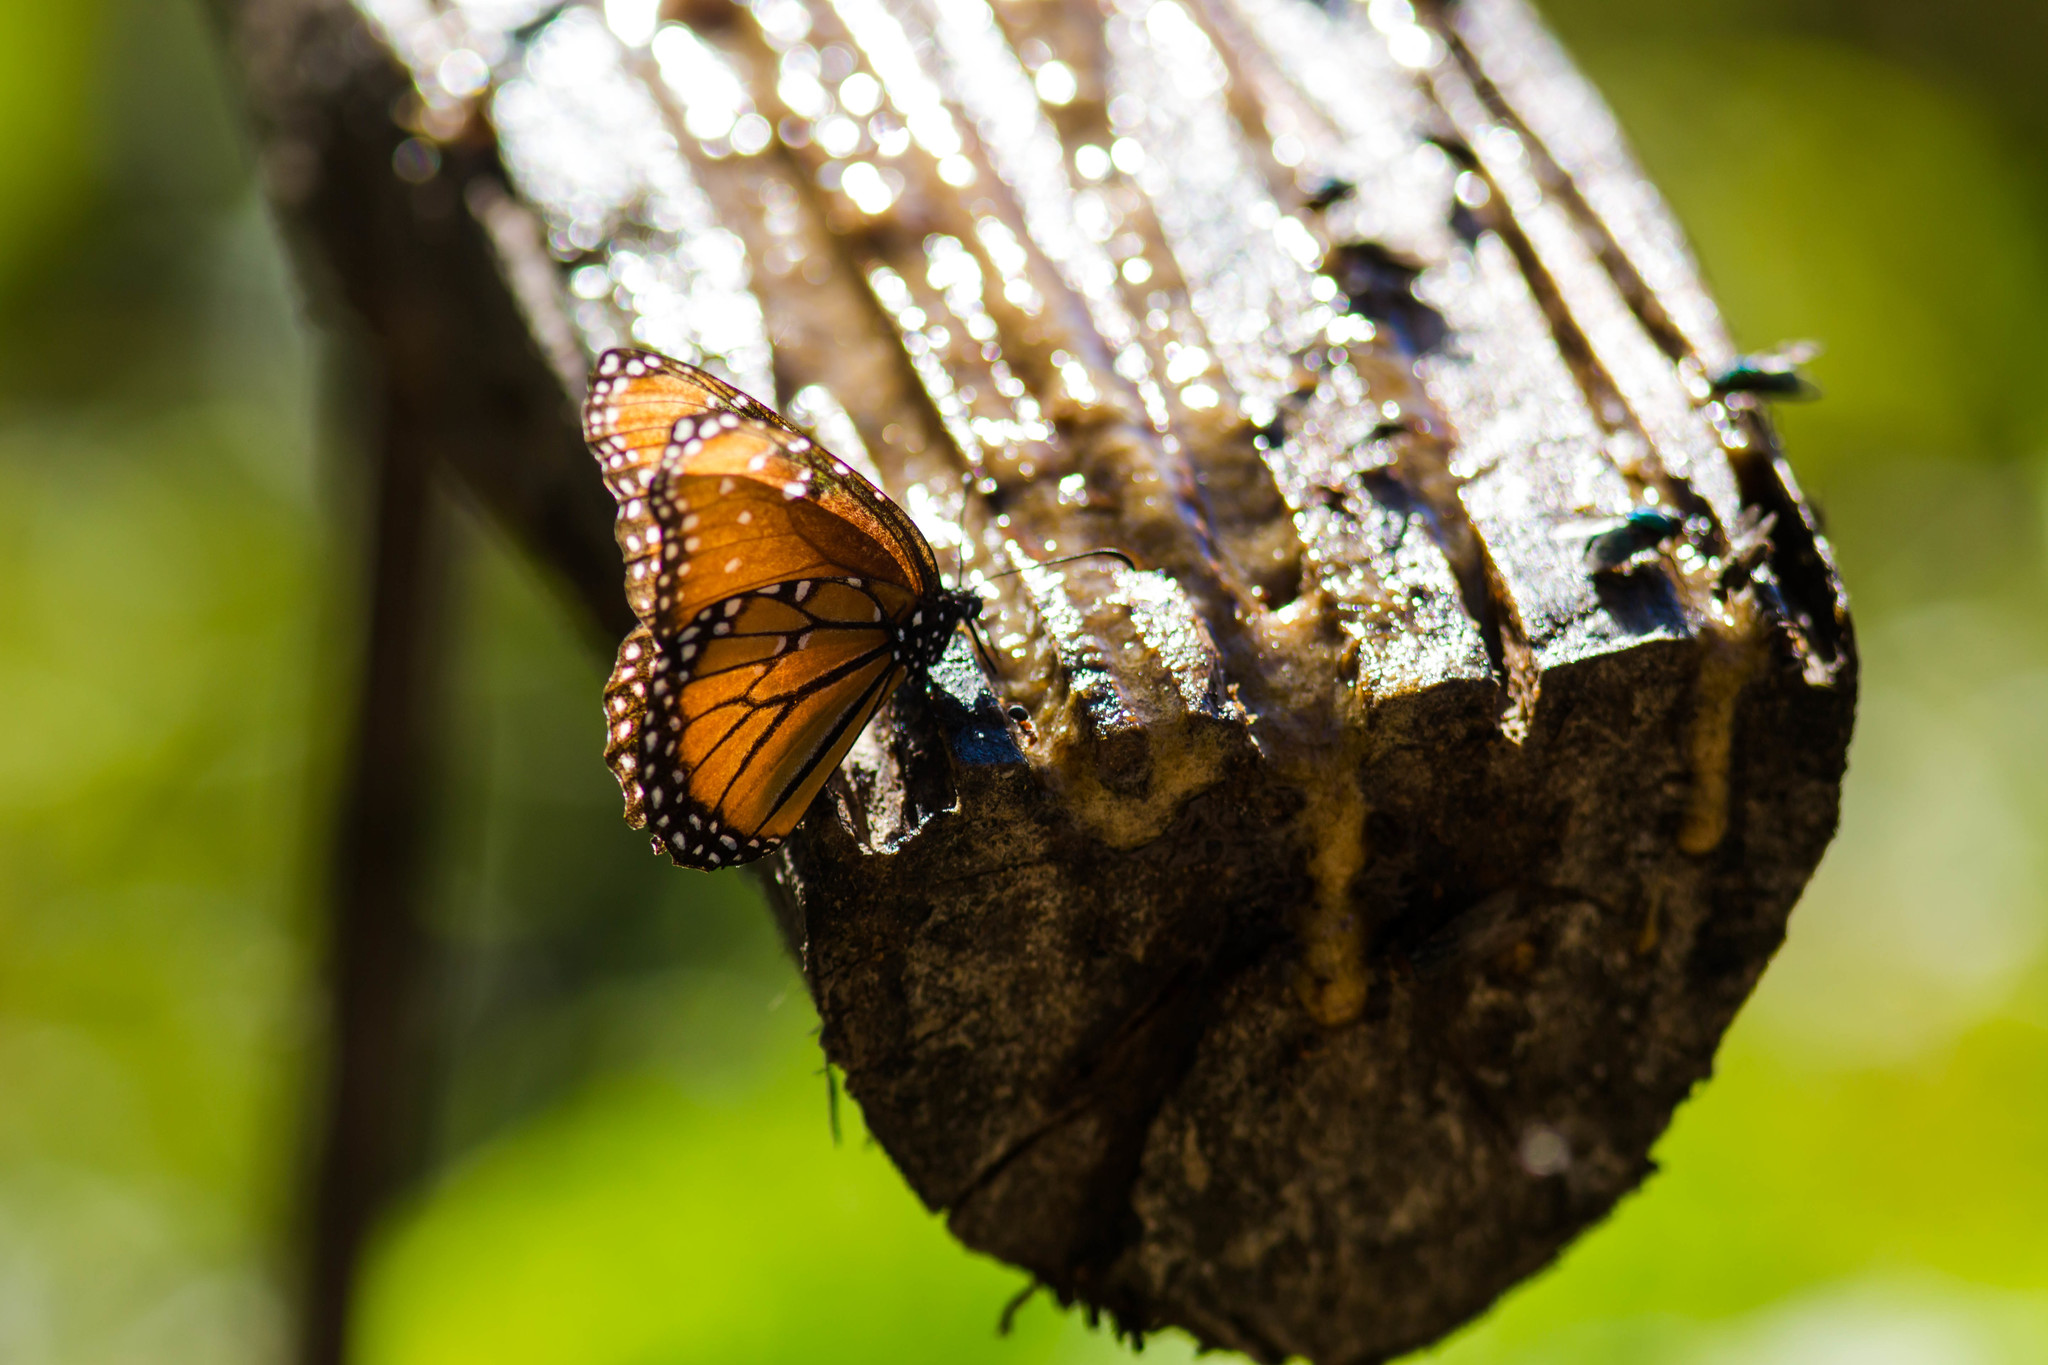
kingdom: Animalia
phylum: Arthropoda
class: Insecta
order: Lepidoptera
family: Nymphalidae
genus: Danaus
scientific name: Danaus gilippus
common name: Queen
